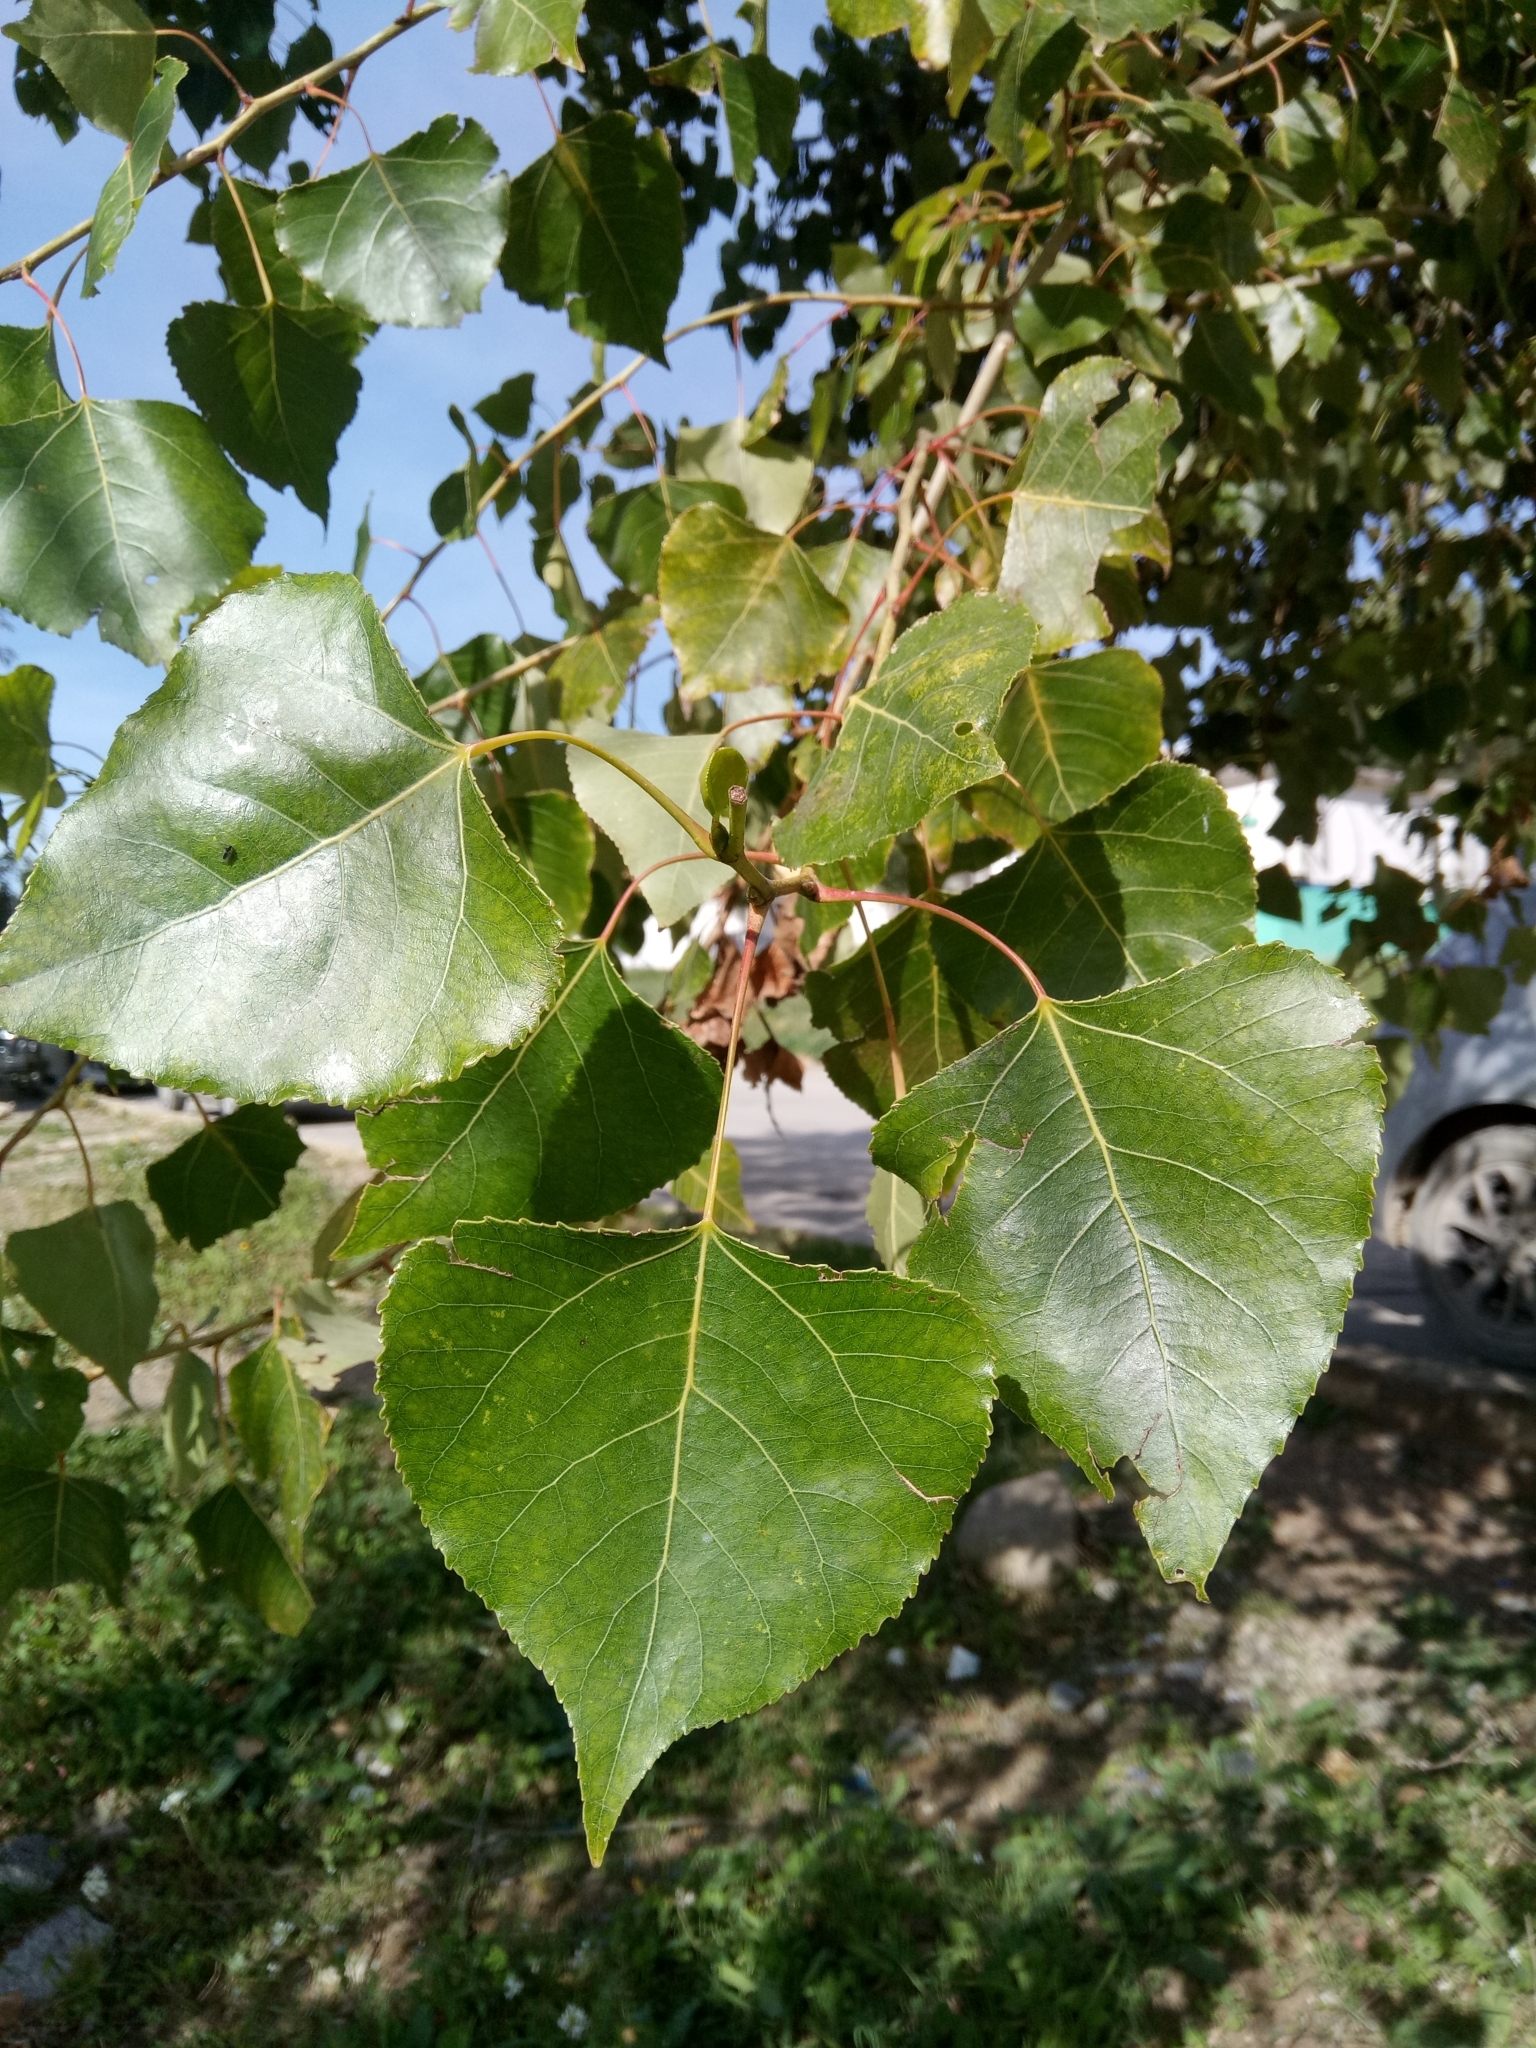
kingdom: Plantae
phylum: Tracheophyta
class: Magnoliopsida
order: Malpighiales
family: Salicaceae
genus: Populus
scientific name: Populus nigra
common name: Black poplar
